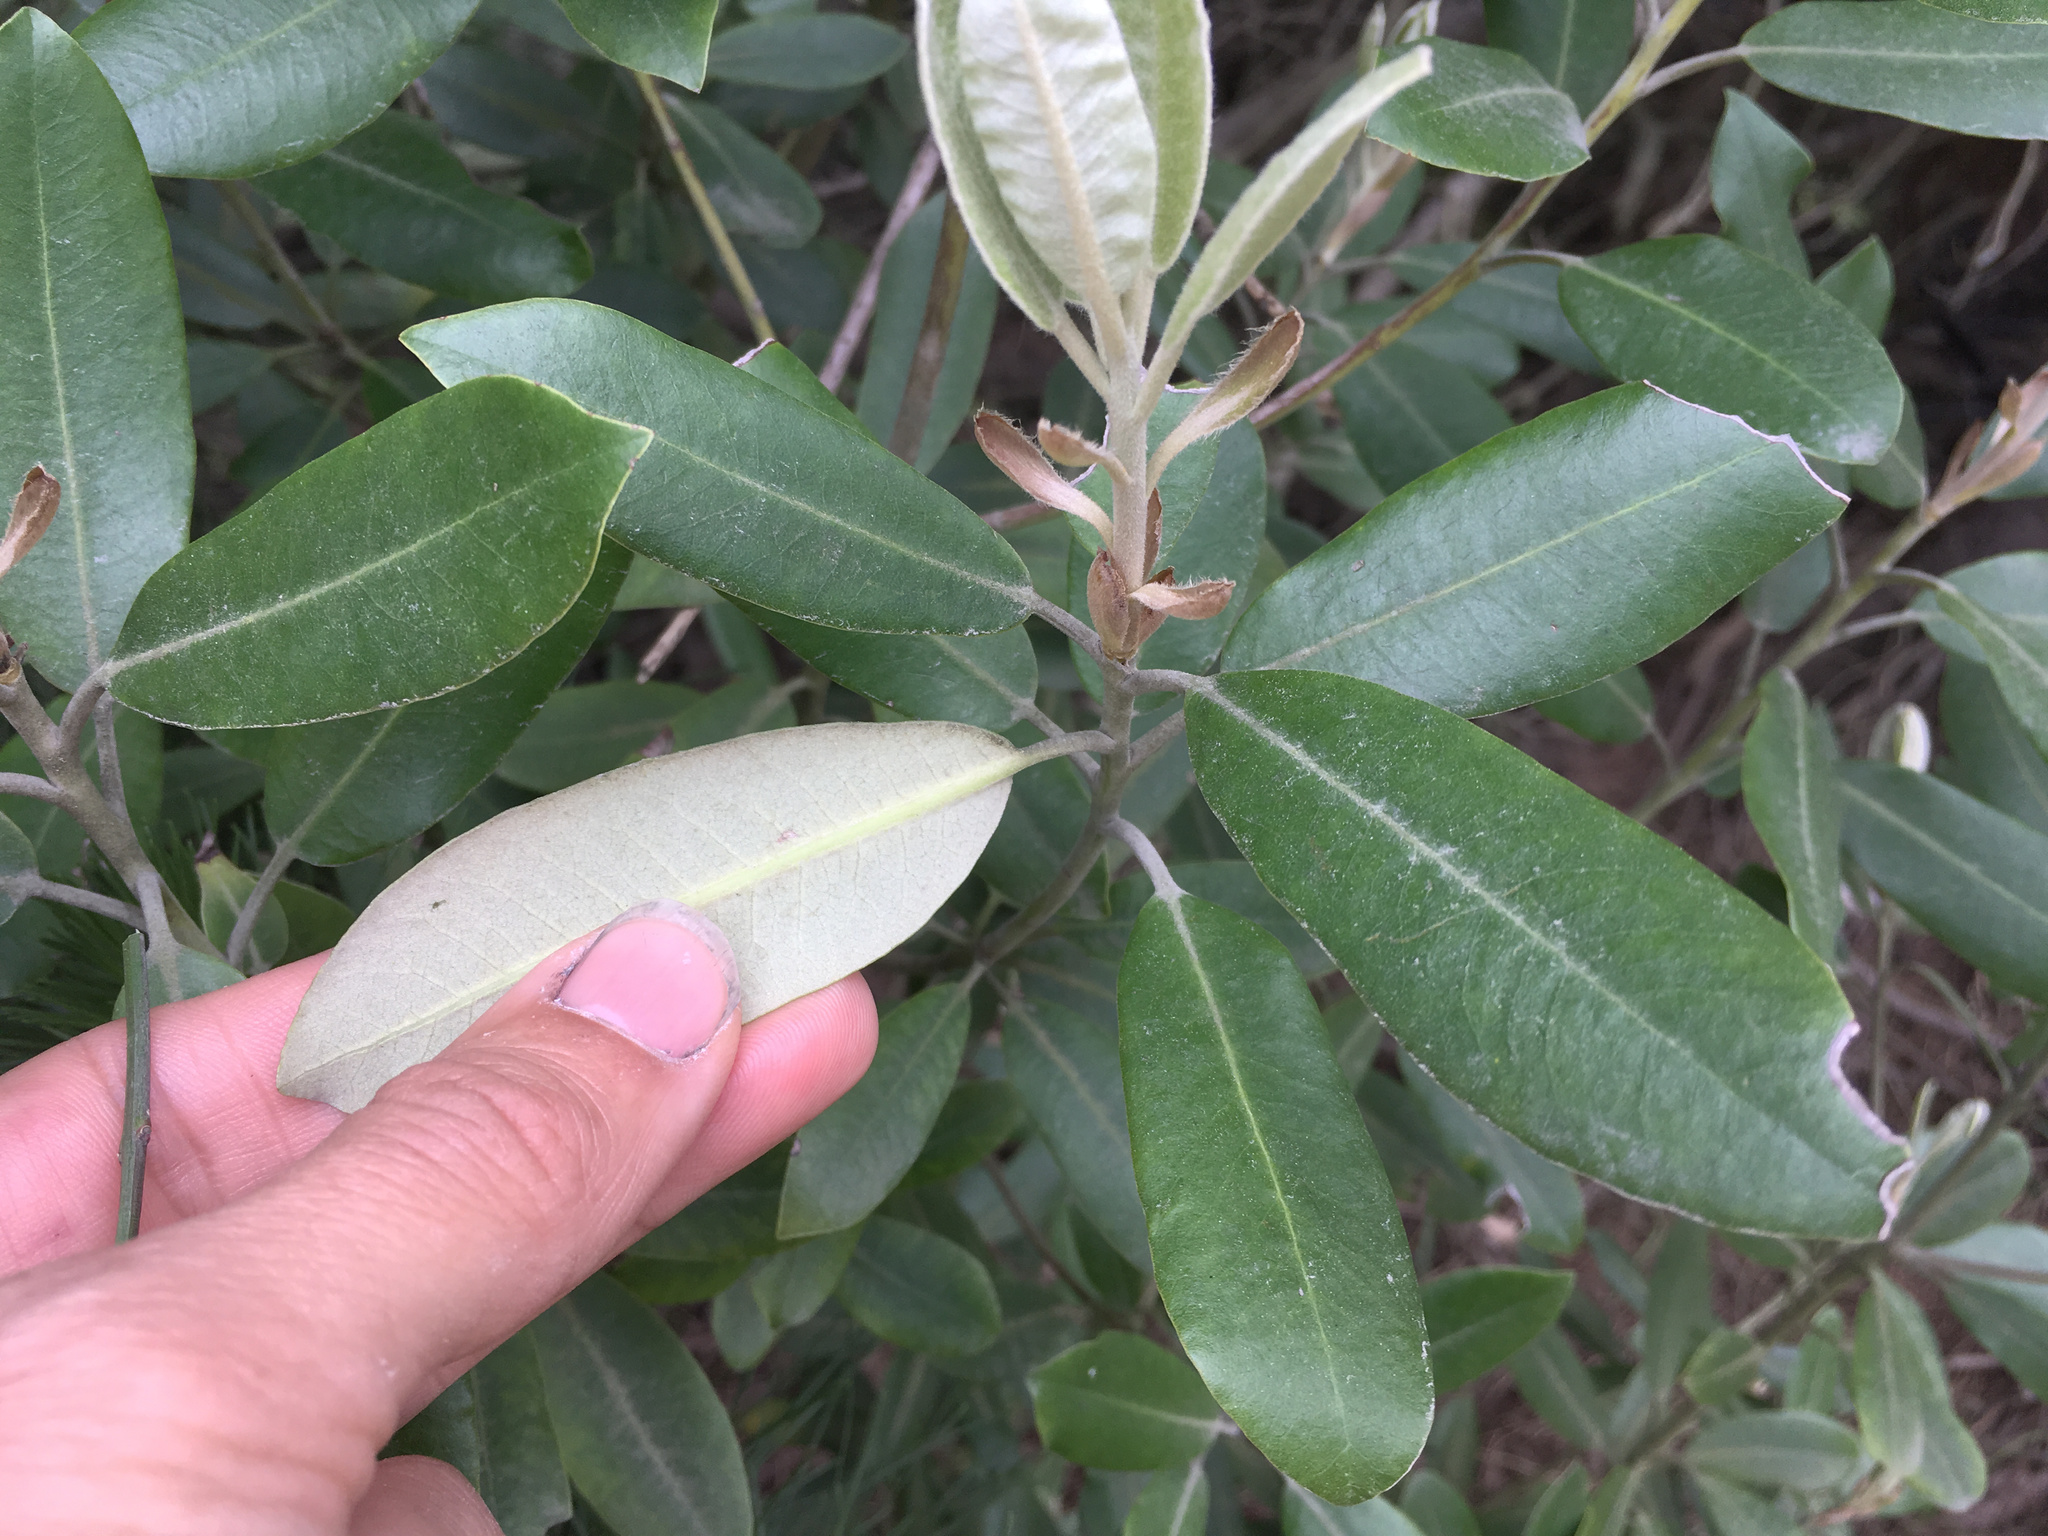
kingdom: Plantae
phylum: Tracheophyta
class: Magnoliopsida
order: Apiales
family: Pittosporaceae
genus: Pittosporum
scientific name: Pittosporum ralphii
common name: Ralph's desertwillow
